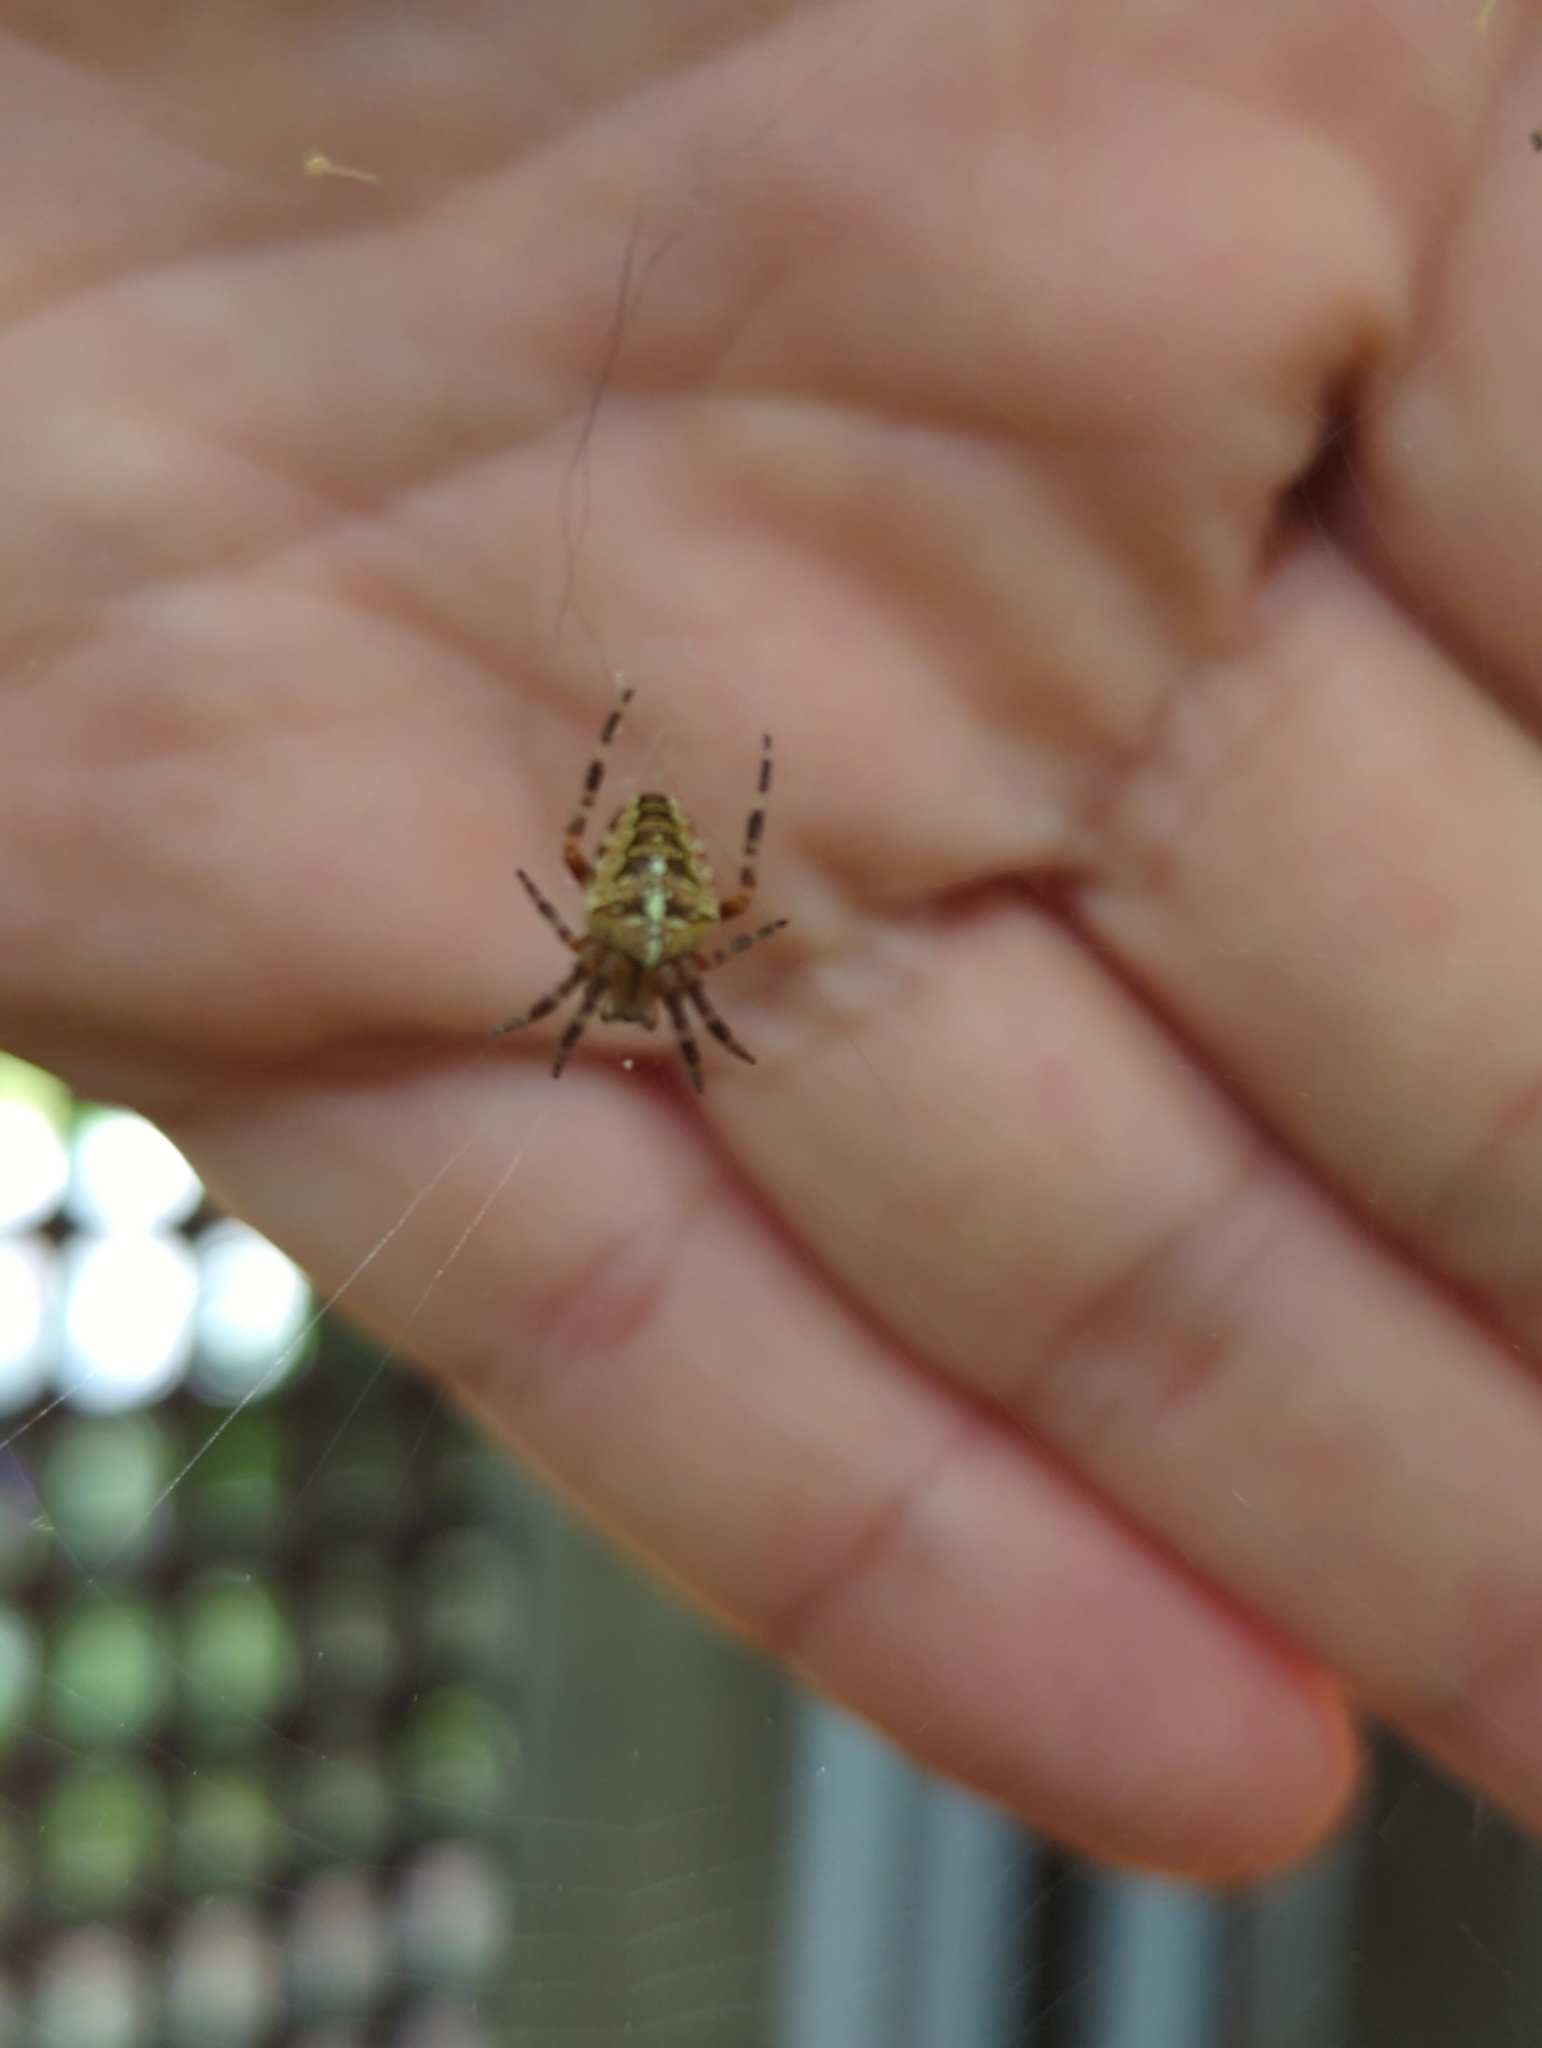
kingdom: Animalia
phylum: Arthropoda
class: Arachnida
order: Araneae
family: Araneidae
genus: Araneus
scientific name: Araneus diadematus
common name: Cross orbweaver
